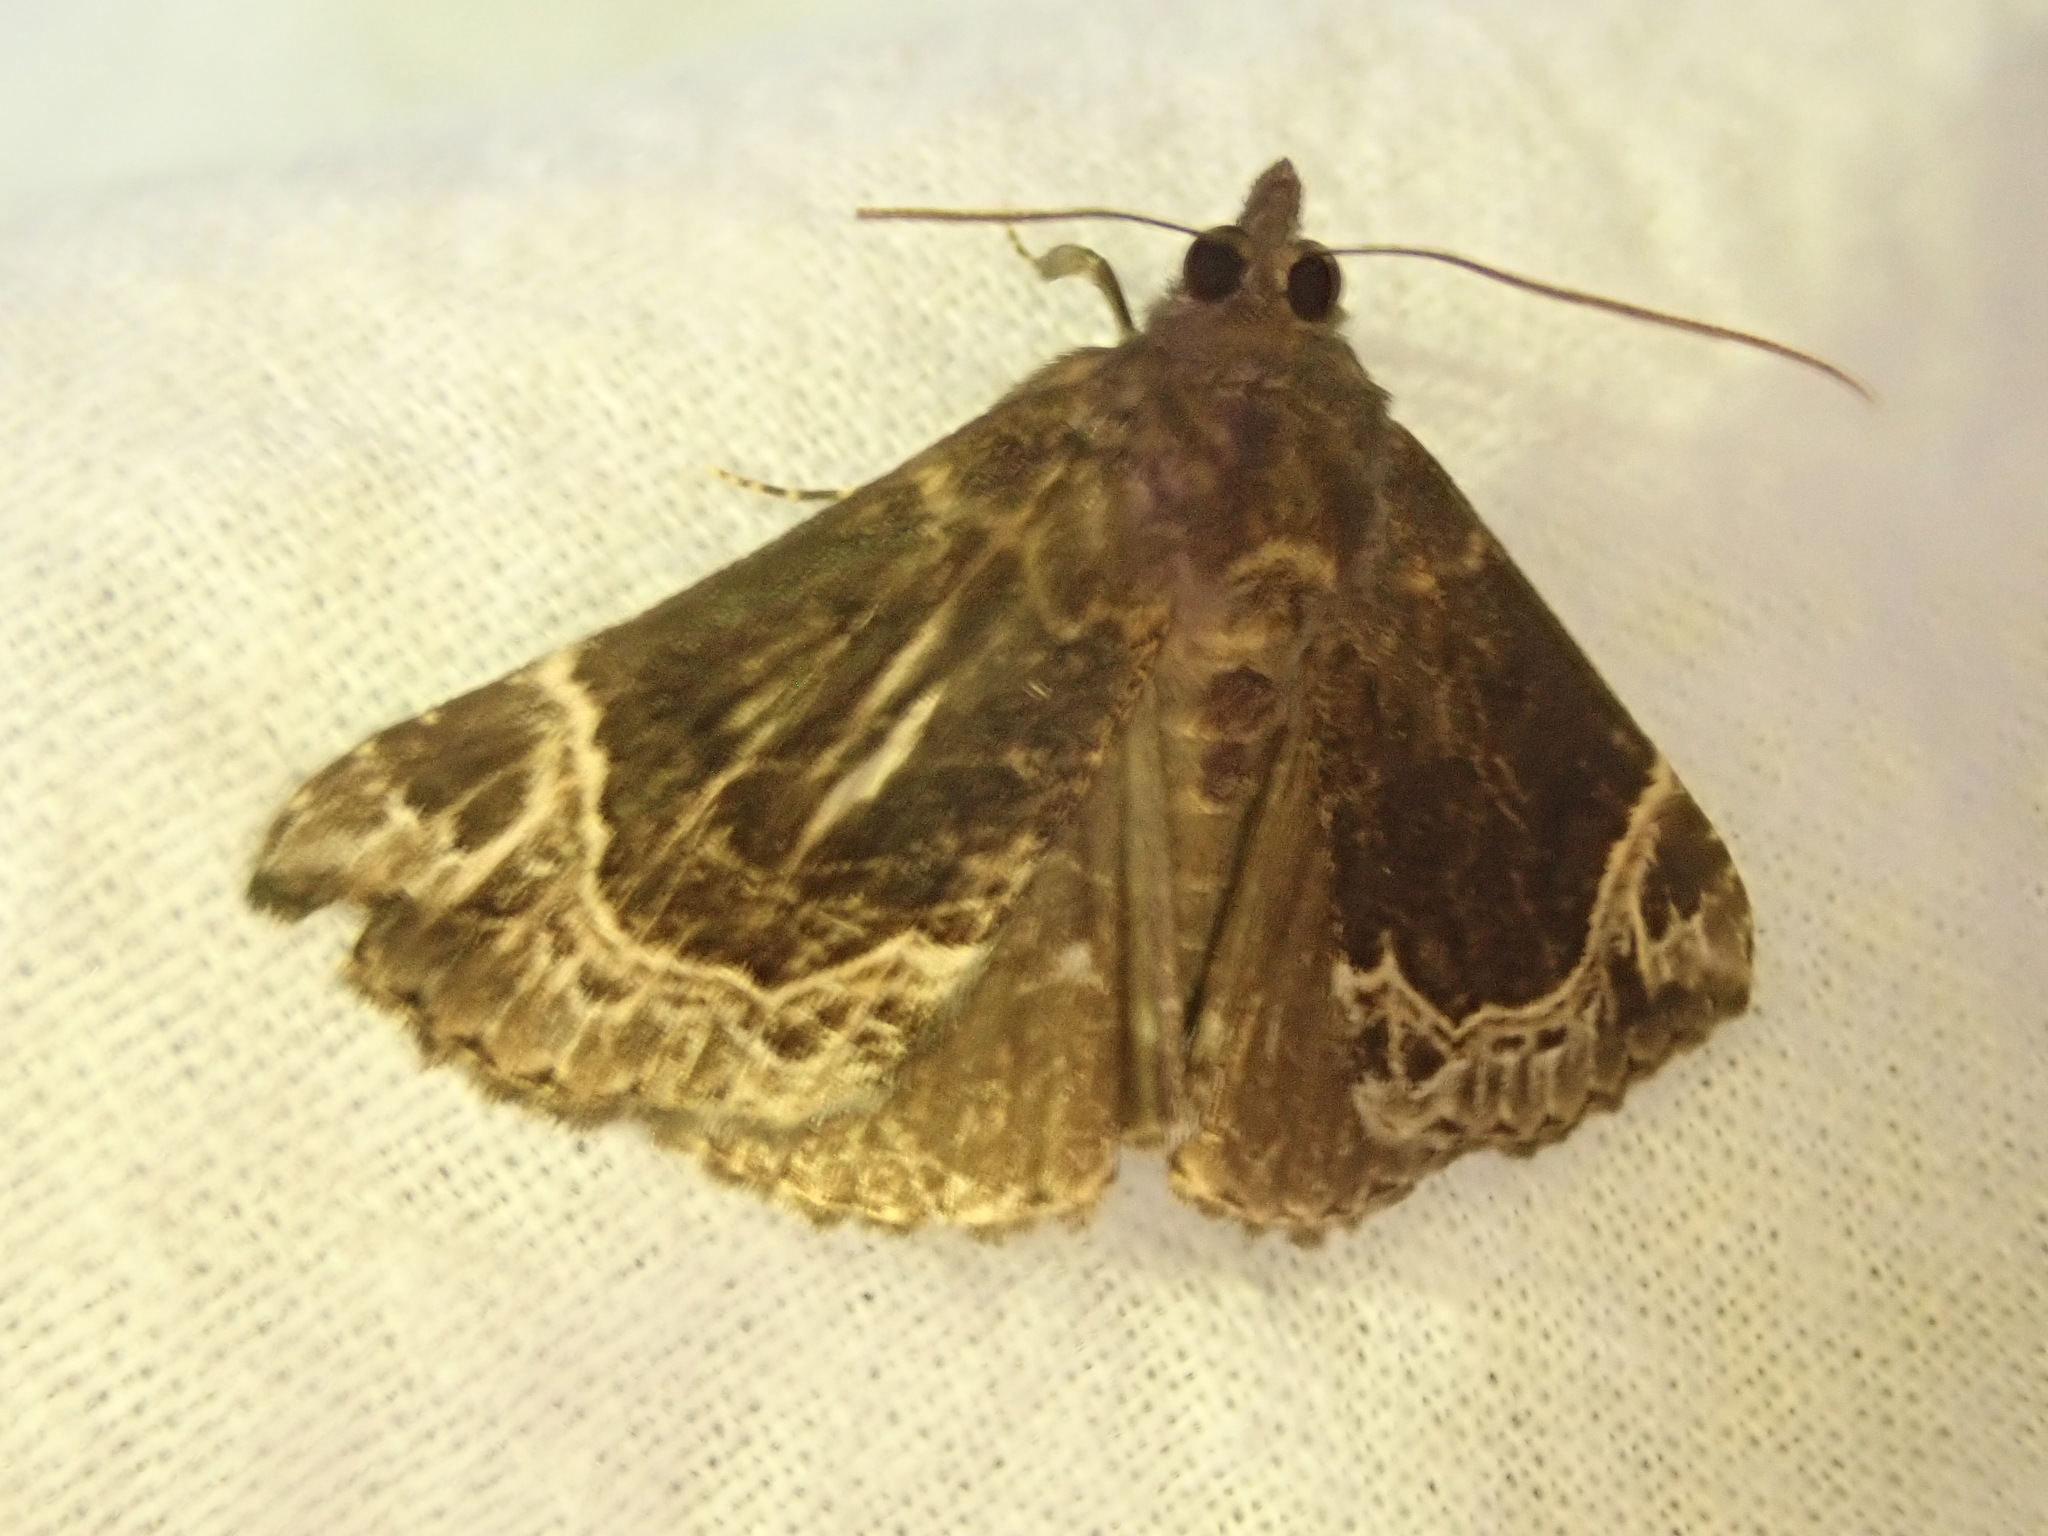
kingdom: Animalia
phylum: Arthropoda
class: Insecta
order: Lepidoptera
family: Erebidae
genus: Hypena
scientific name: Hypena abalienalis
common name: White-lined snout
